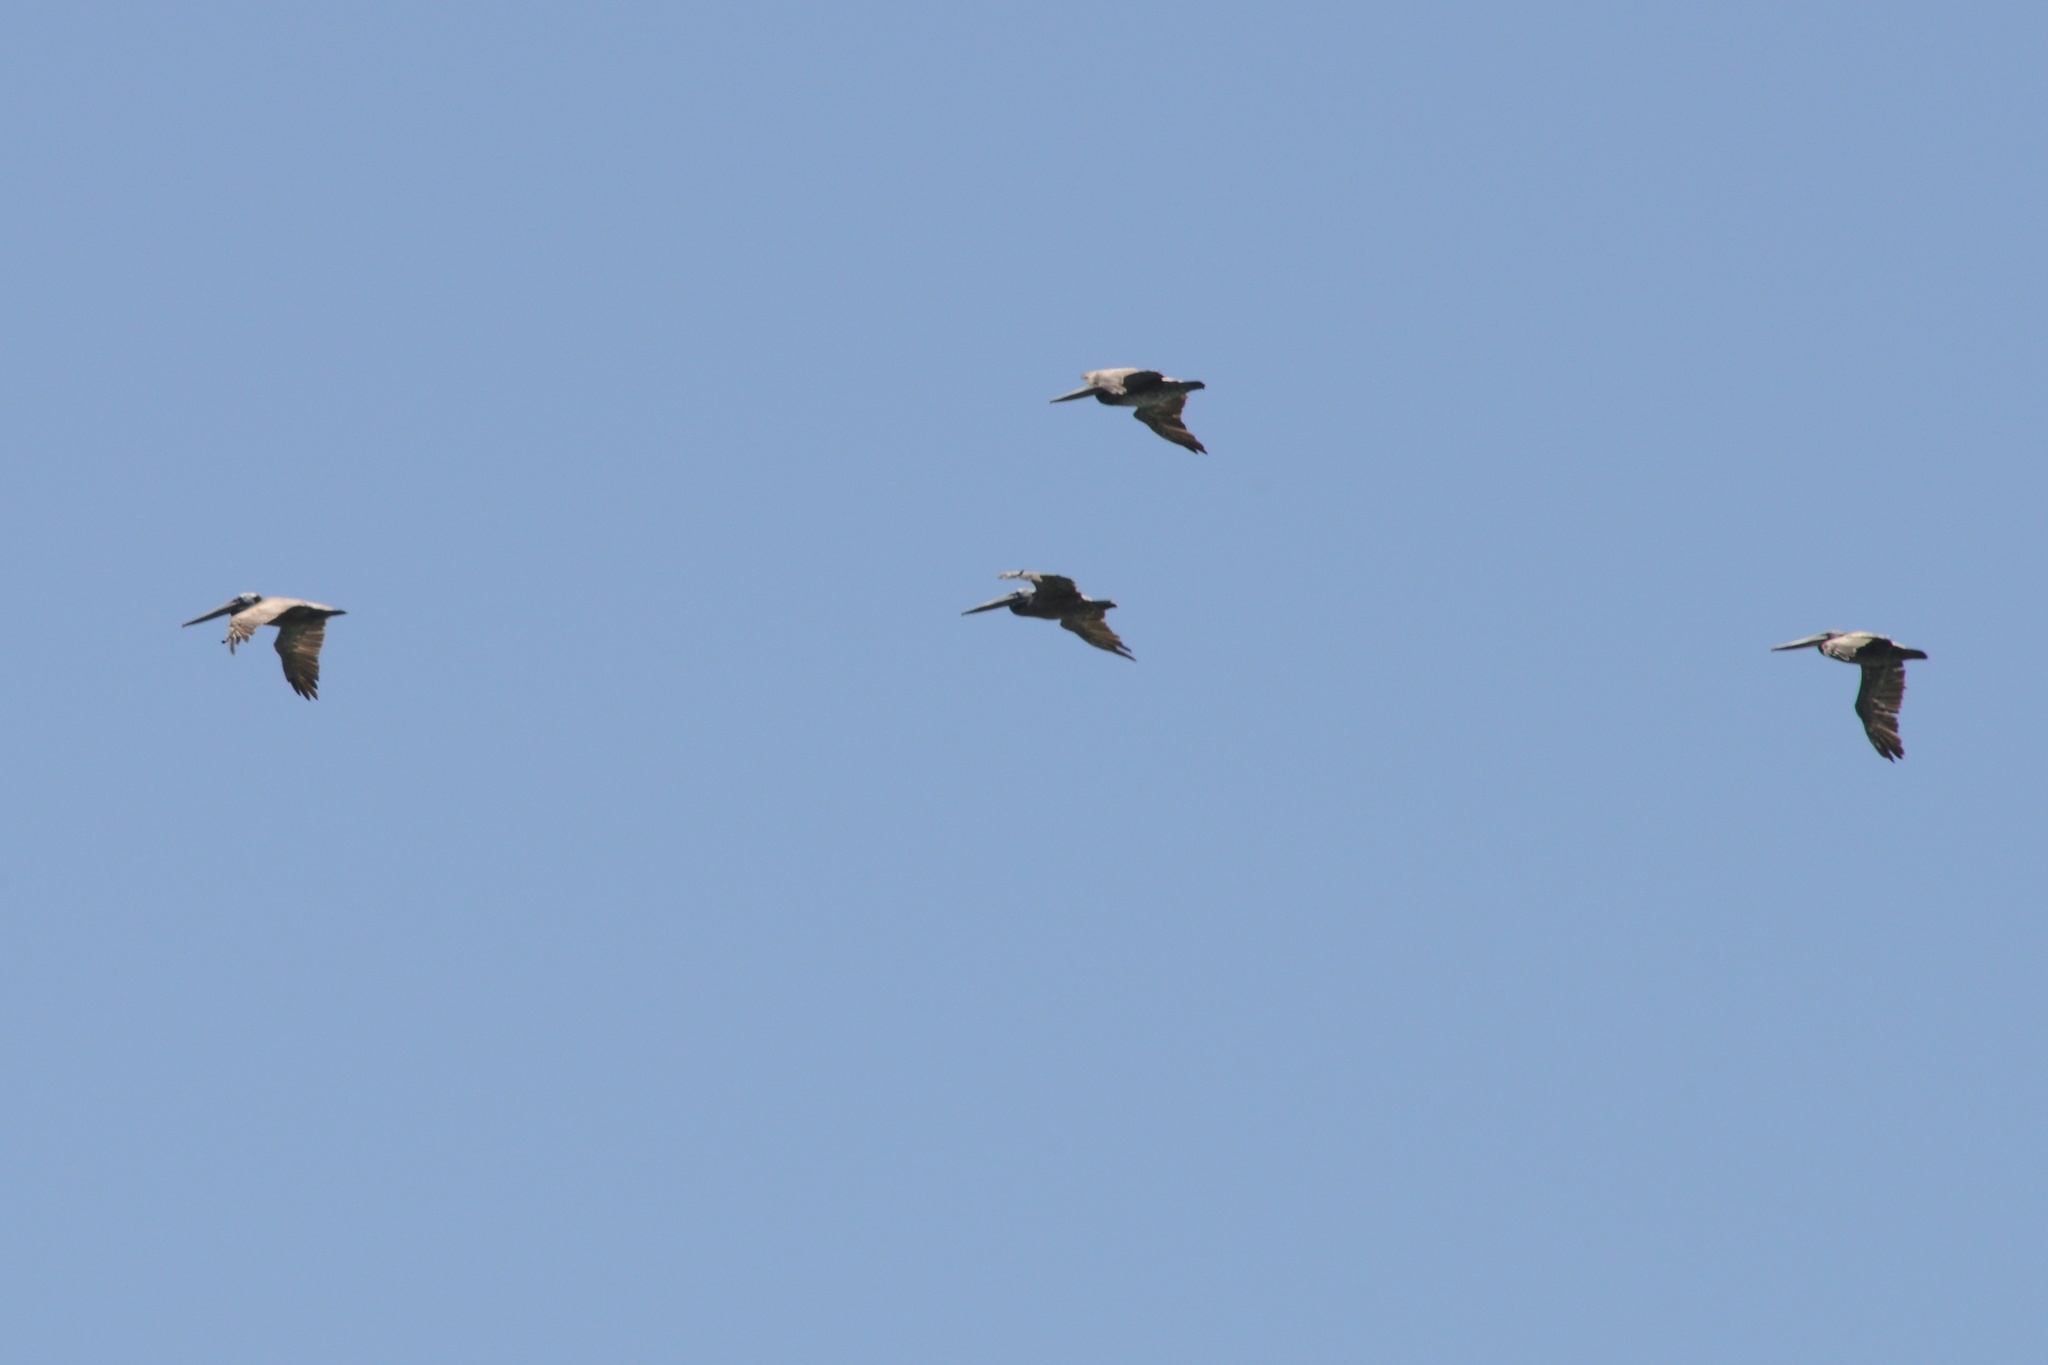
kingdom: Animalia
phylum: Chordata
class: Aves
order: Pelecaniformes
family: Pelecanidae
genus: Pelecanus
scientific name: Pelecanus occidentalis
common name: Brown pelican
